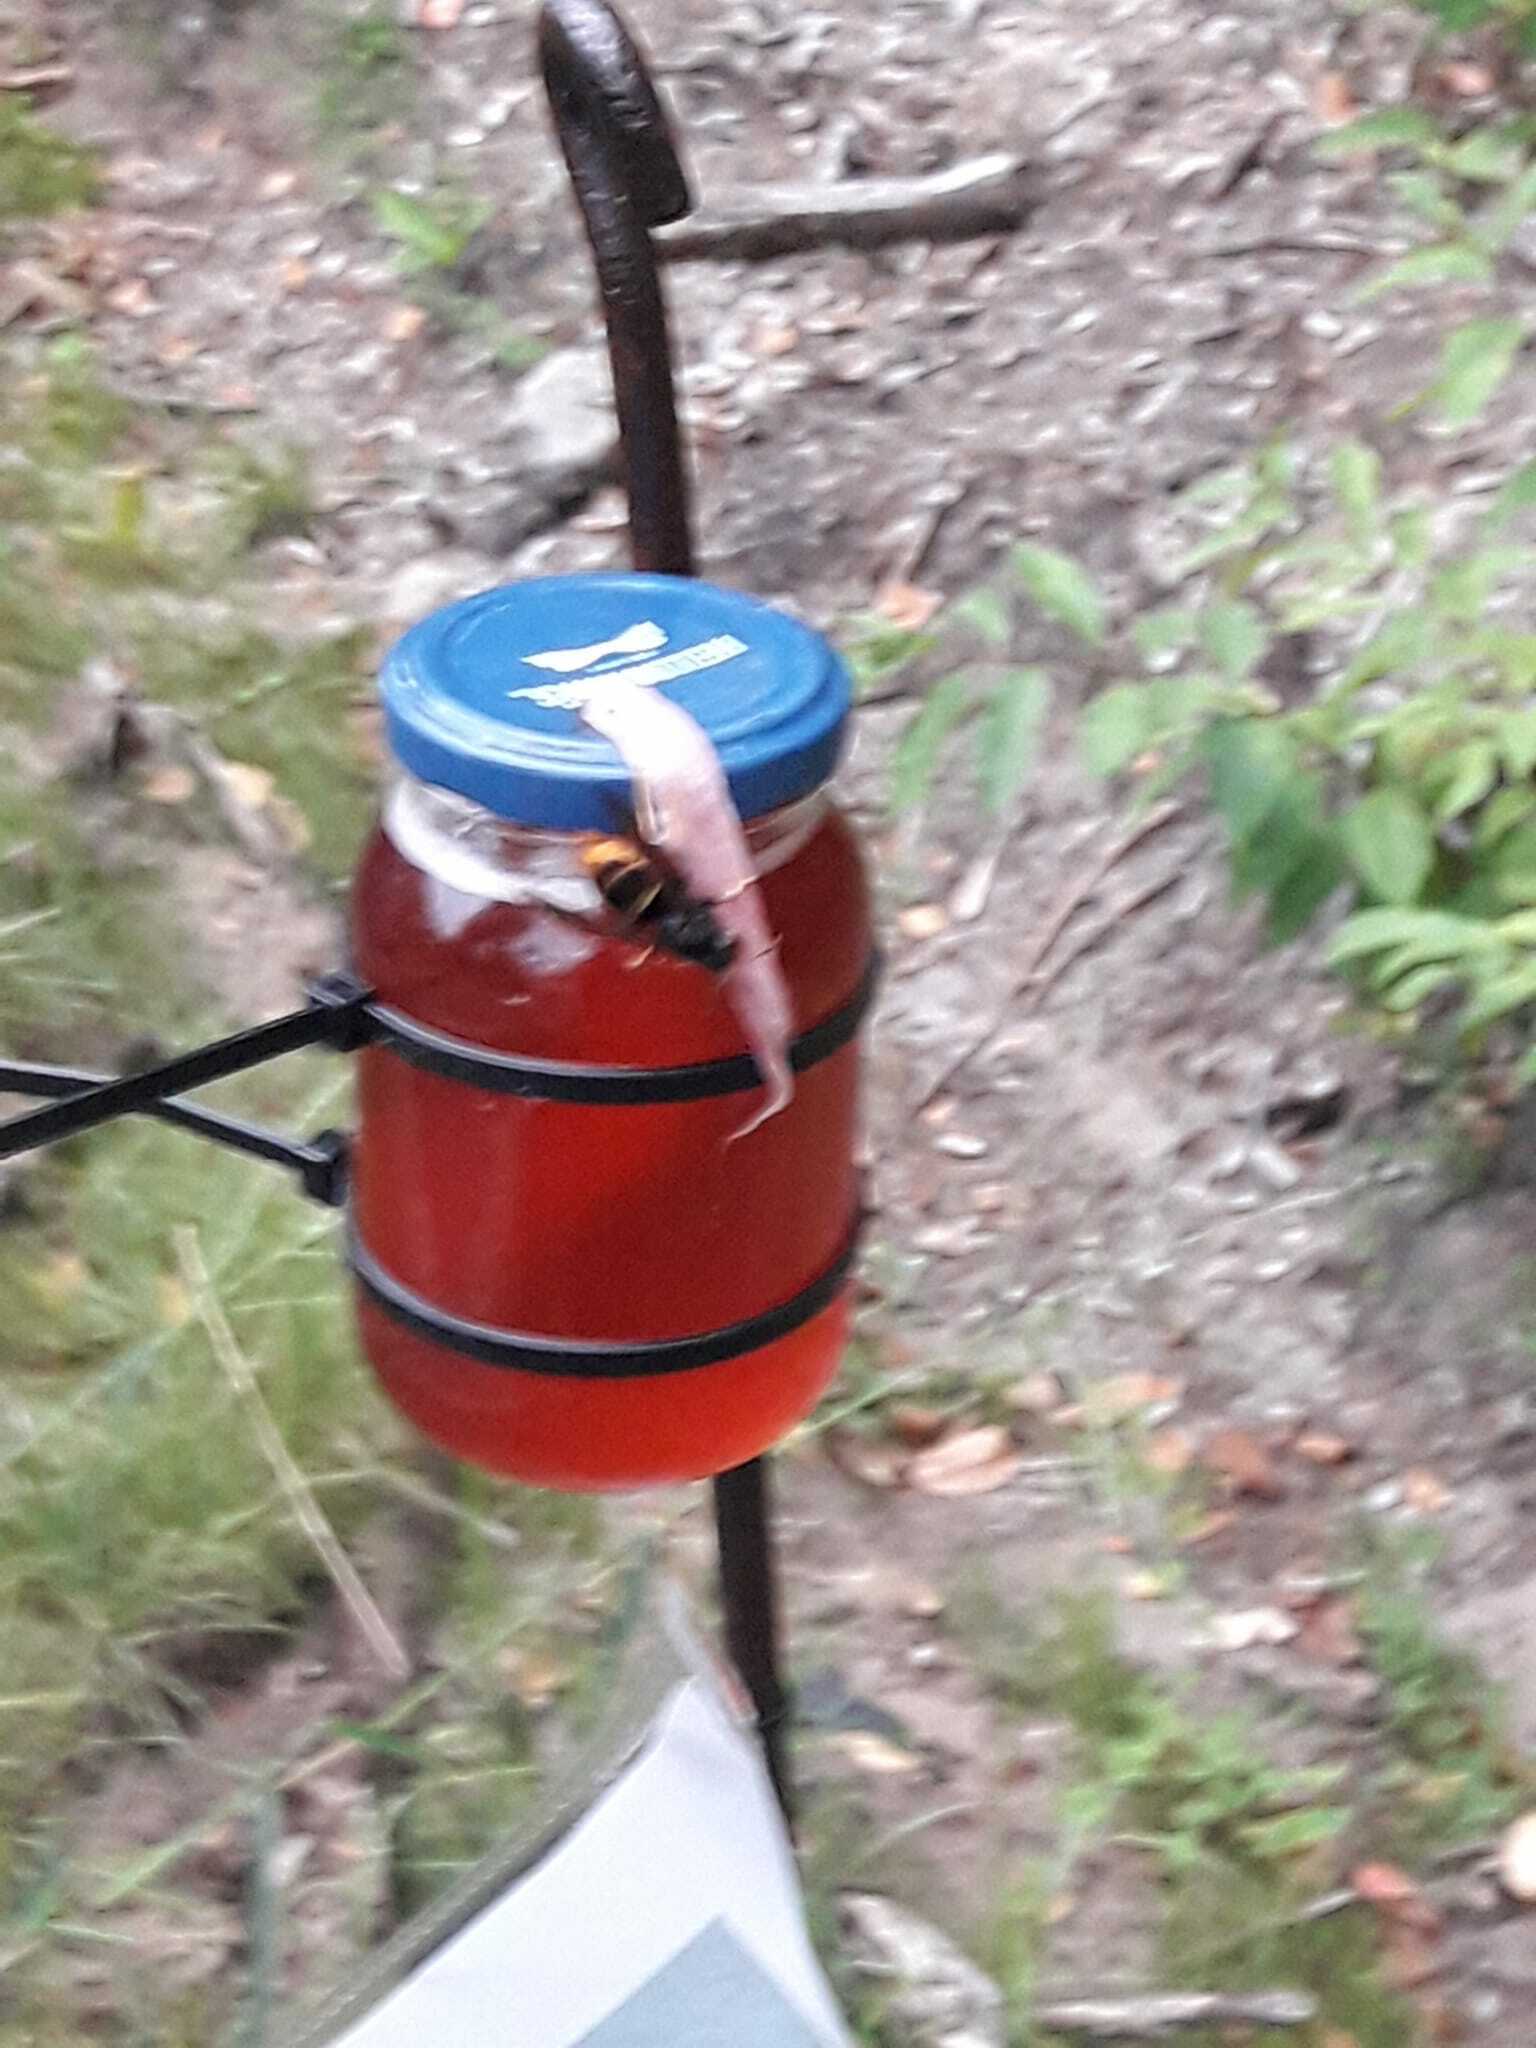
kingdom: Animalia
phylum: Arthropoda
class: Insecta
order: Hymenoptera
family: Vespidae
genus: Vespa
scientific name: Vespa velutina
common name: Asian hornet
